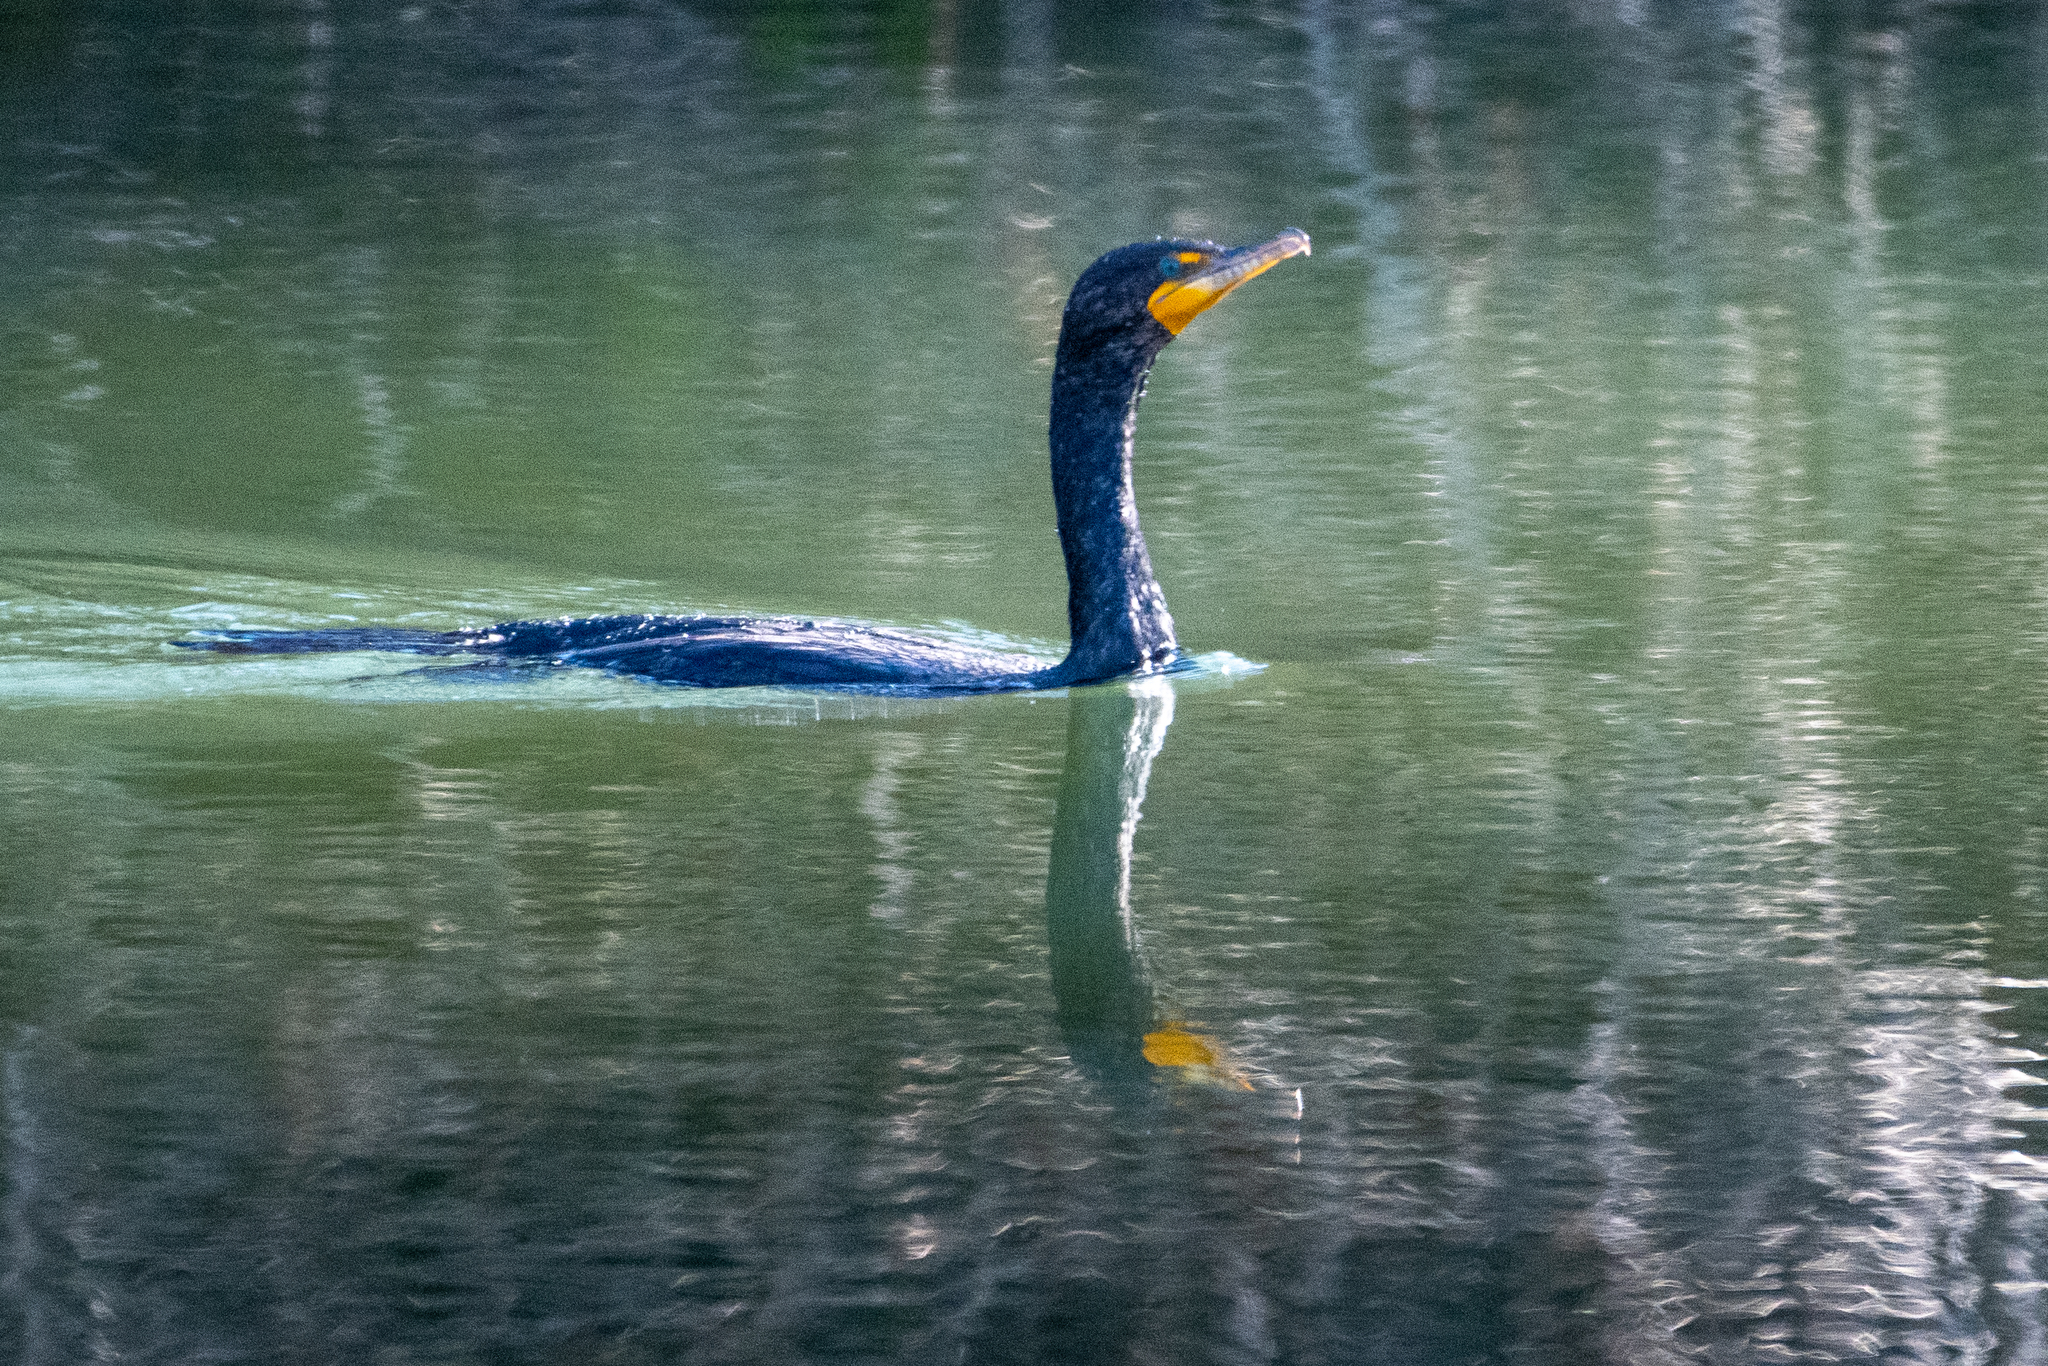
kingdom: Animalia
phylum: Chordata
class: Aves
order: Suliformes
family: Phalacrocoracidae
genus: Phalacrocorax
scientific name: Phalacrocorax auritus
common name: Double-crested cormorant
